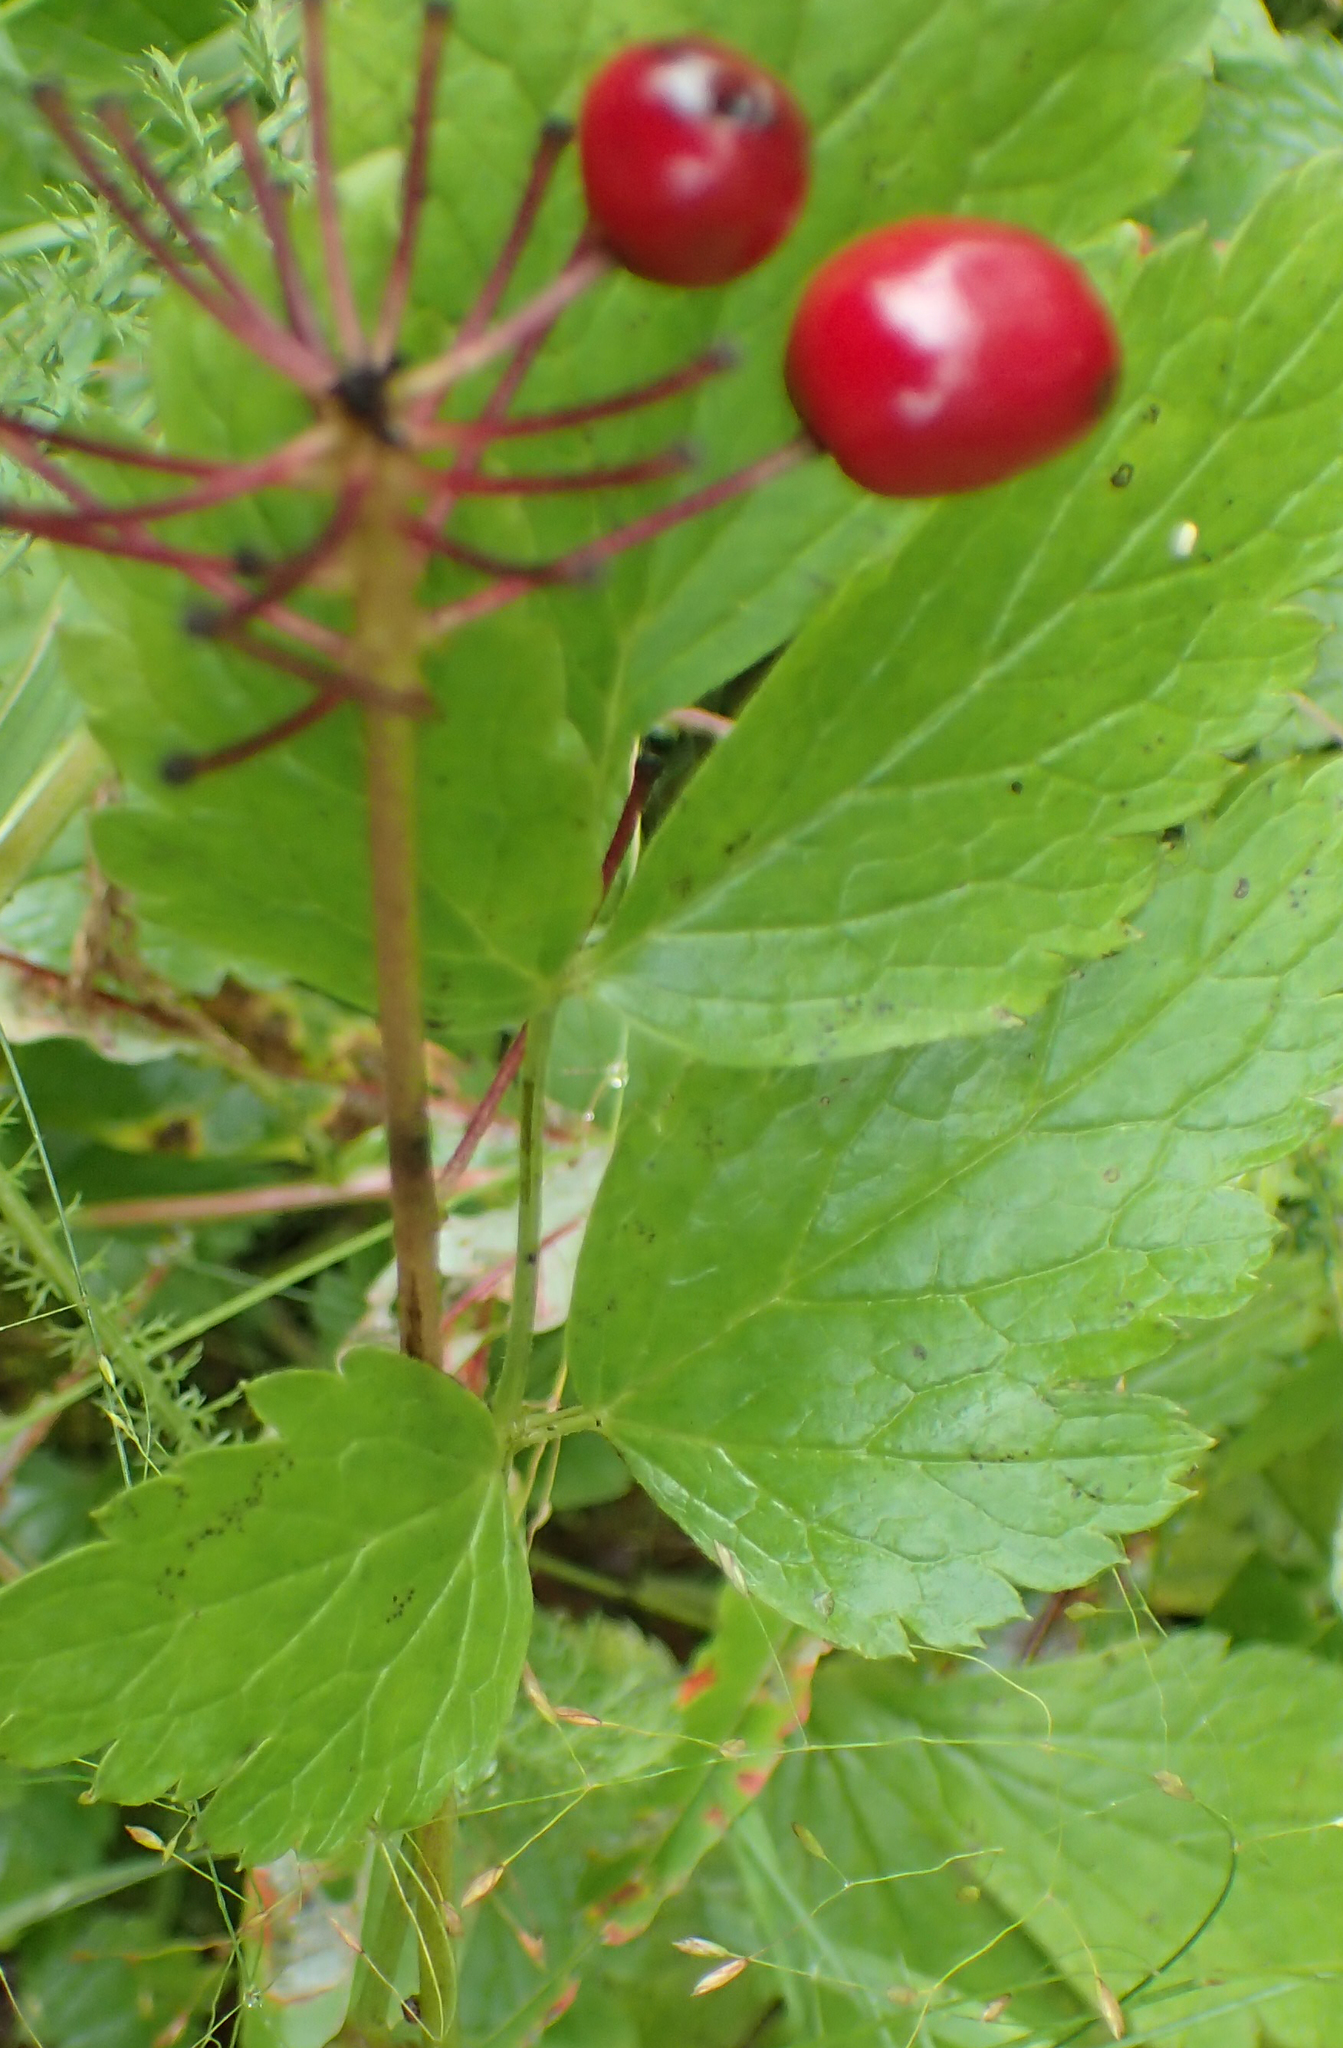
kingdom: Plantae
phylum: Tracheophyta
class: Magnoliopsida
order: Ranunculales
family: Ranunculaceae
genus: Actaea
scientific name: Actaea rubra
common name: Red baneberry
